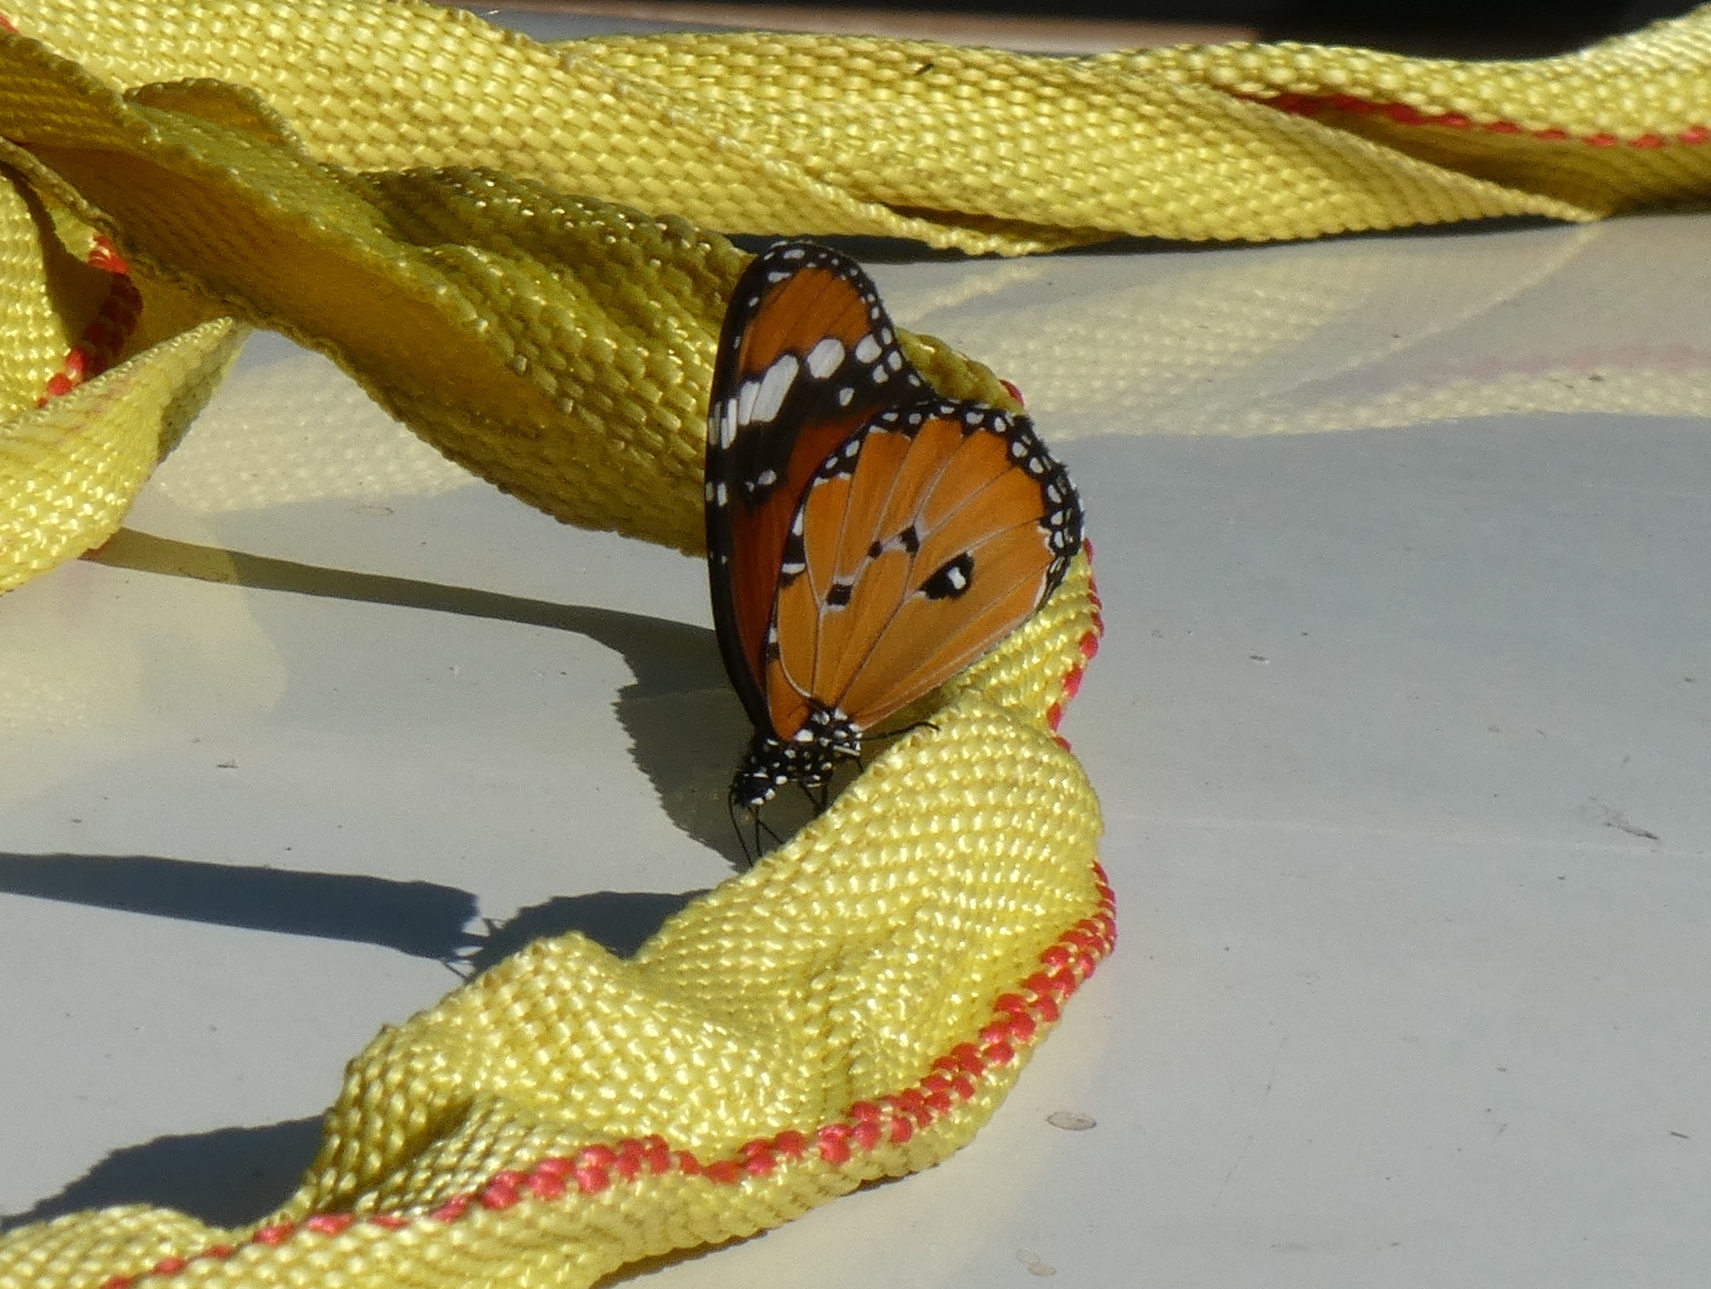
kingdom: Animalia
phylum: Arthropoda
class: Insecta
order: Lepidoptera
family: Nymphalidae
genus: Danaus
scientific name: Danaus chrysippus
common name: Plain tiger
